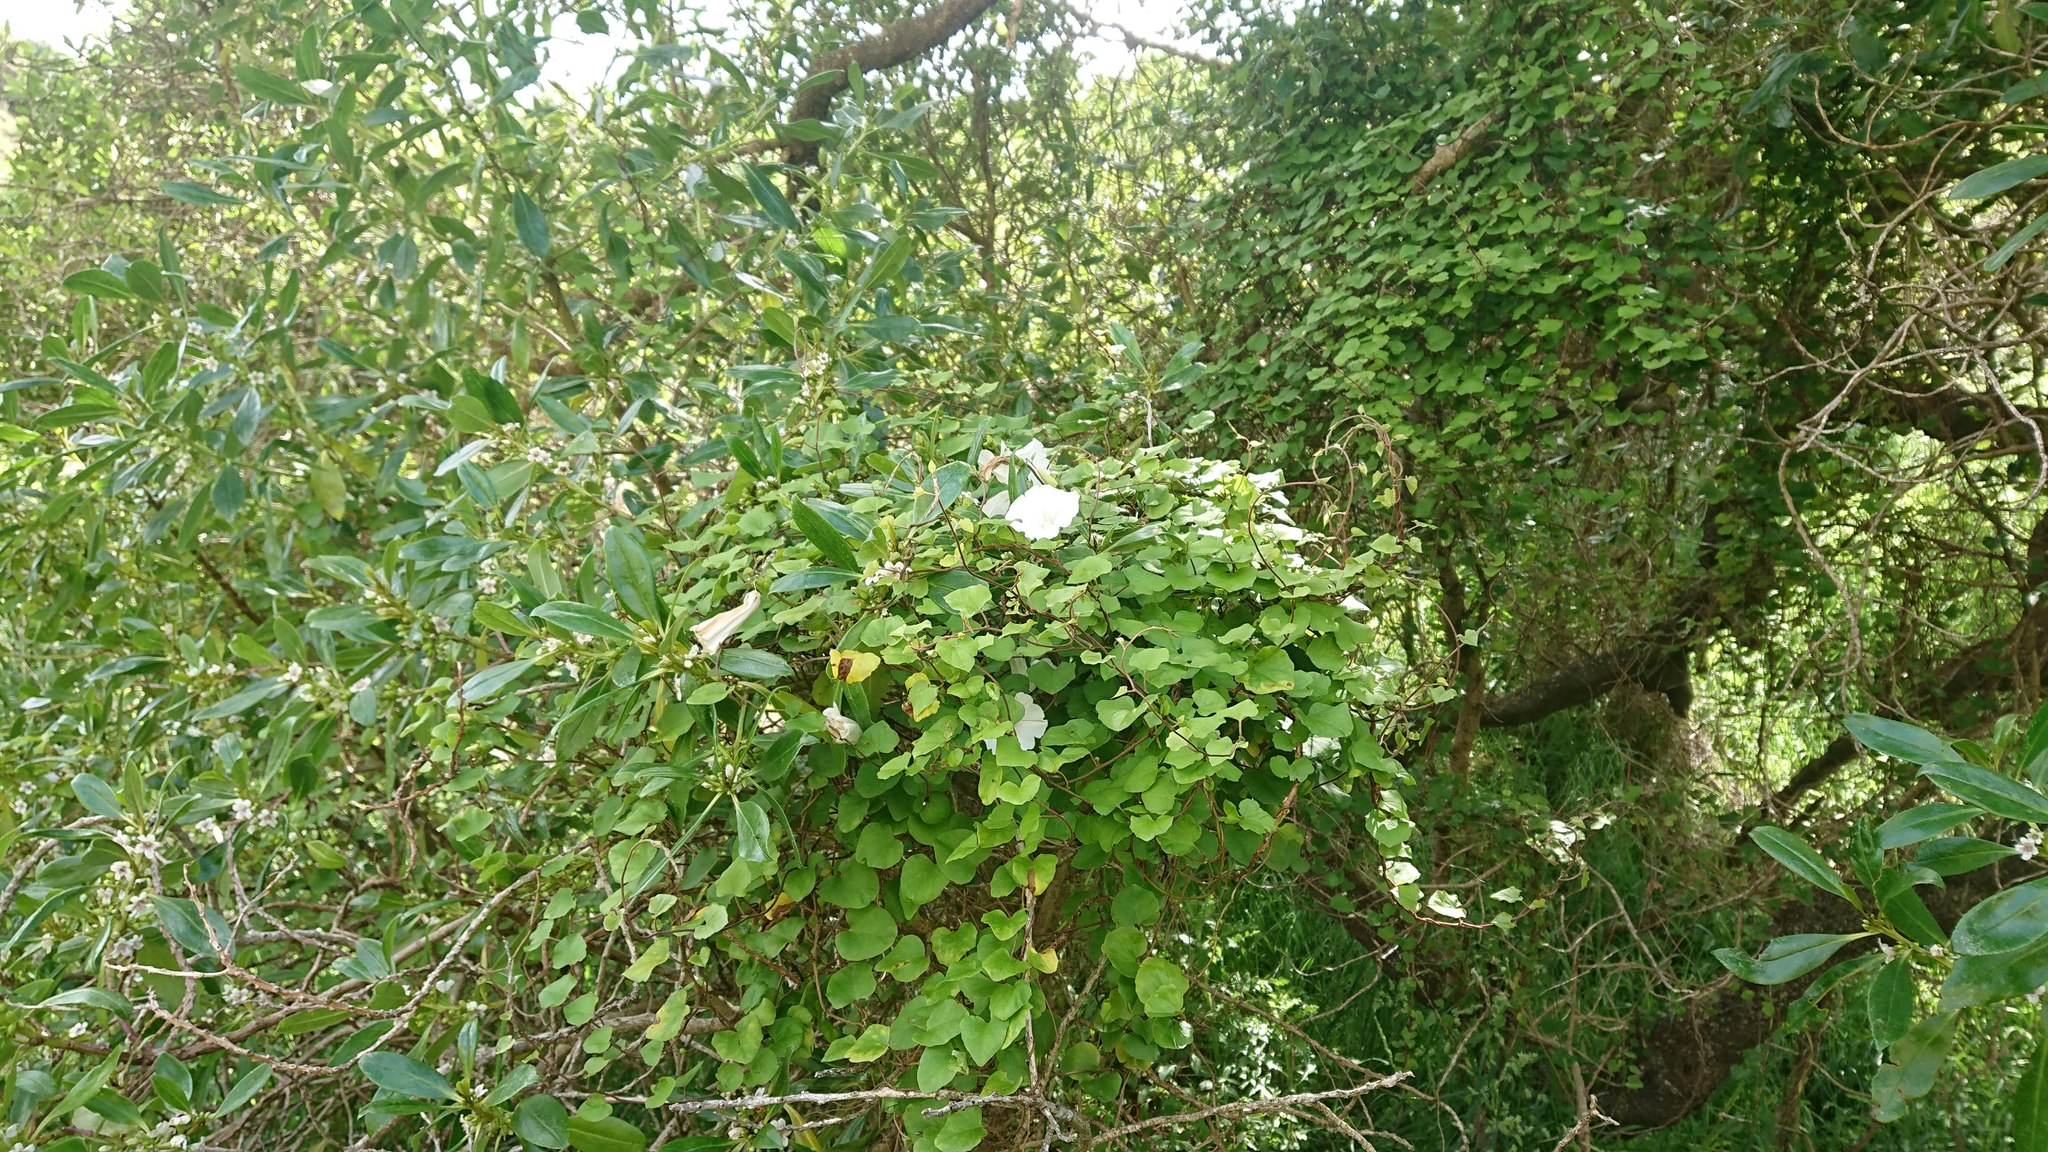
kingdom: Plantae
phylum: Tracheophyta
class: Magnoliopsida
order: Solanales
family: Convolvulaceae
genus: Calystegia
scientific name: Calystegia tuguriorum
